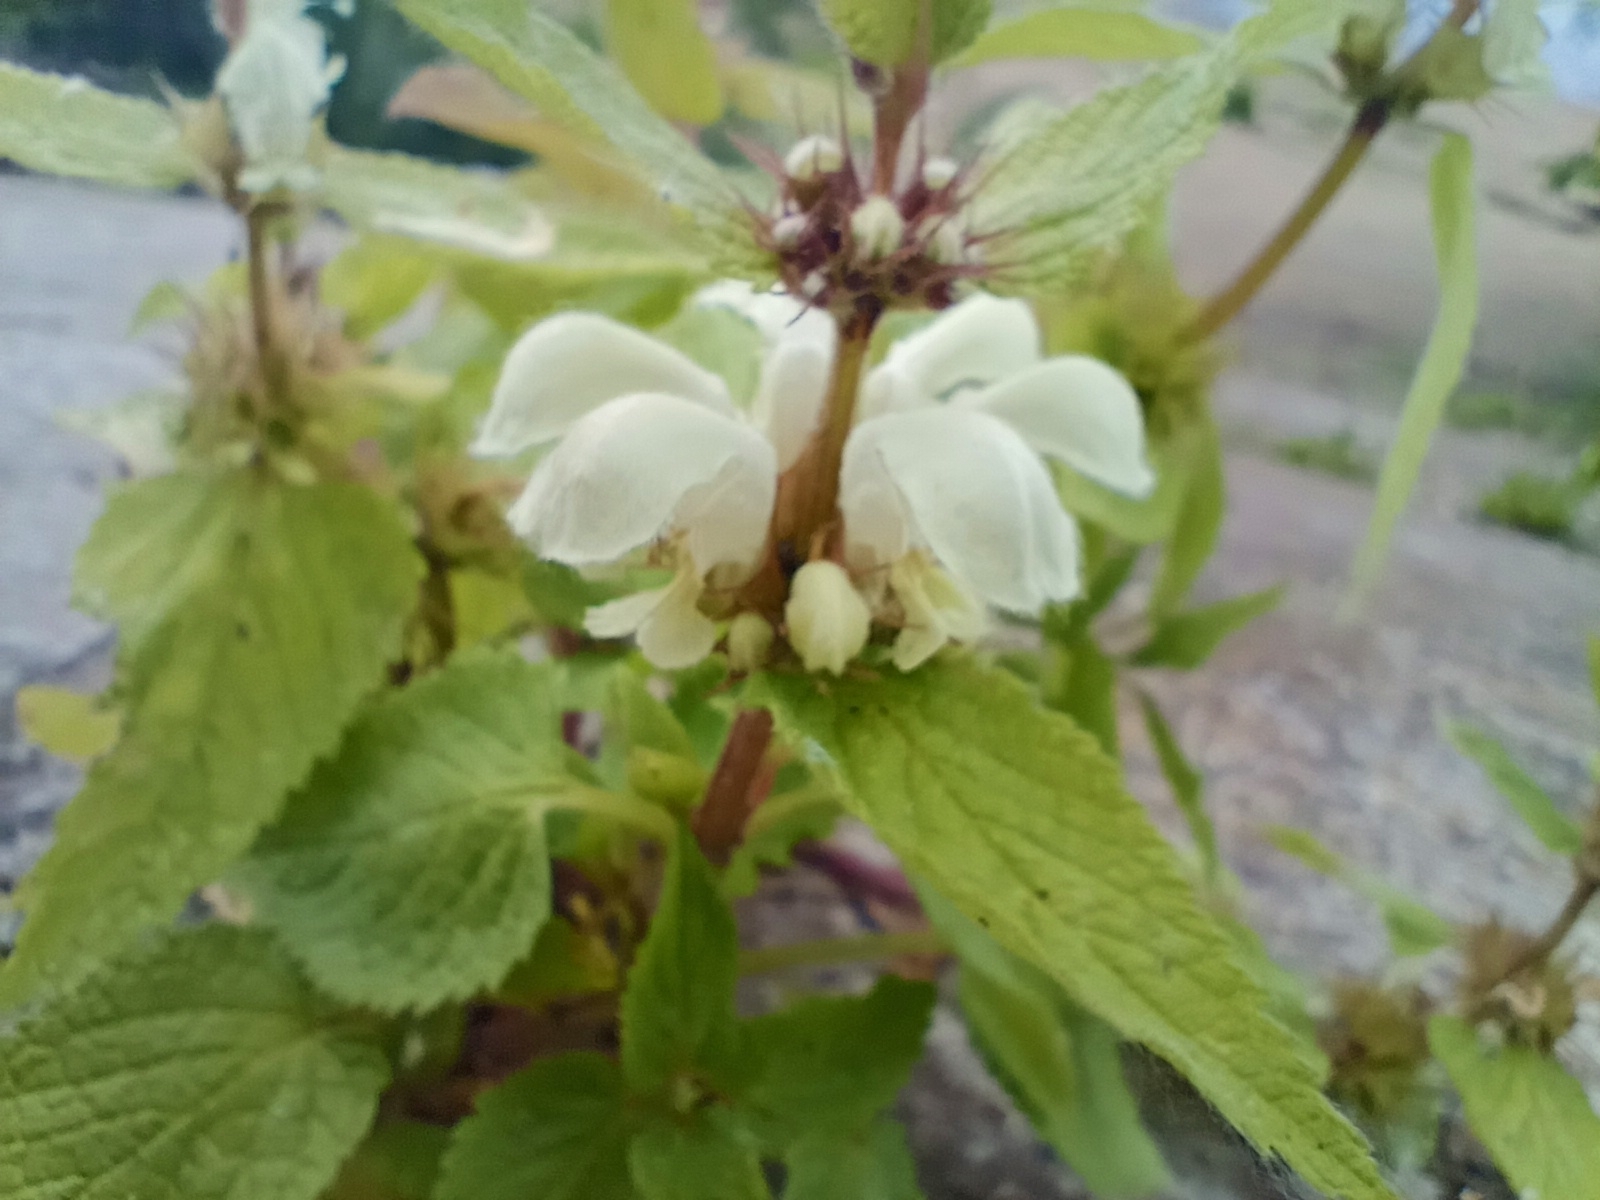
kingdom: Plantae
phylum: Tracheophyta
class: Magnoliopsida
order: Lamiales
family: Lamiaceae
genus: Lamium
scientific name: Lamium album
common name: White dead-nettle
